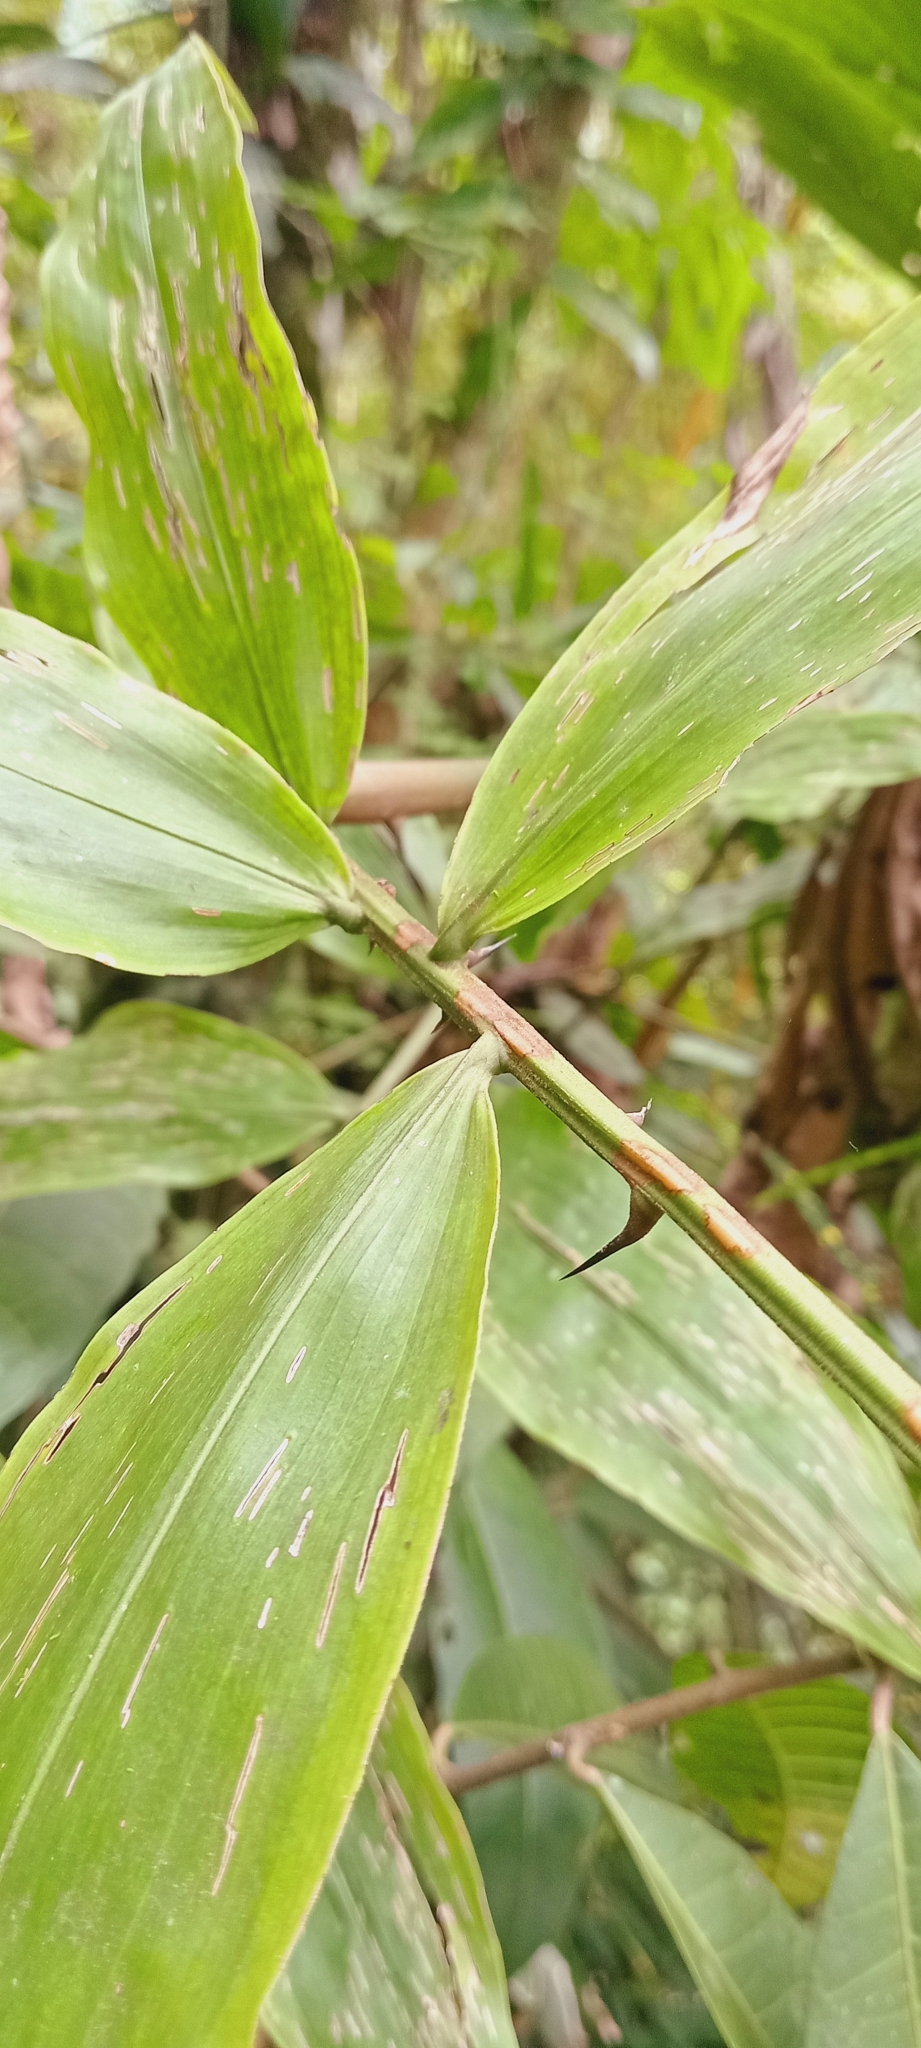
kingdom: Plantae
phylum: Tracheophyta
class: Liliopsida
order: Arecales
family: Arecaceae
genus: Desmoncus
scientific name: Desmoncus polyacanthos
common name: Suriname bramble palm
